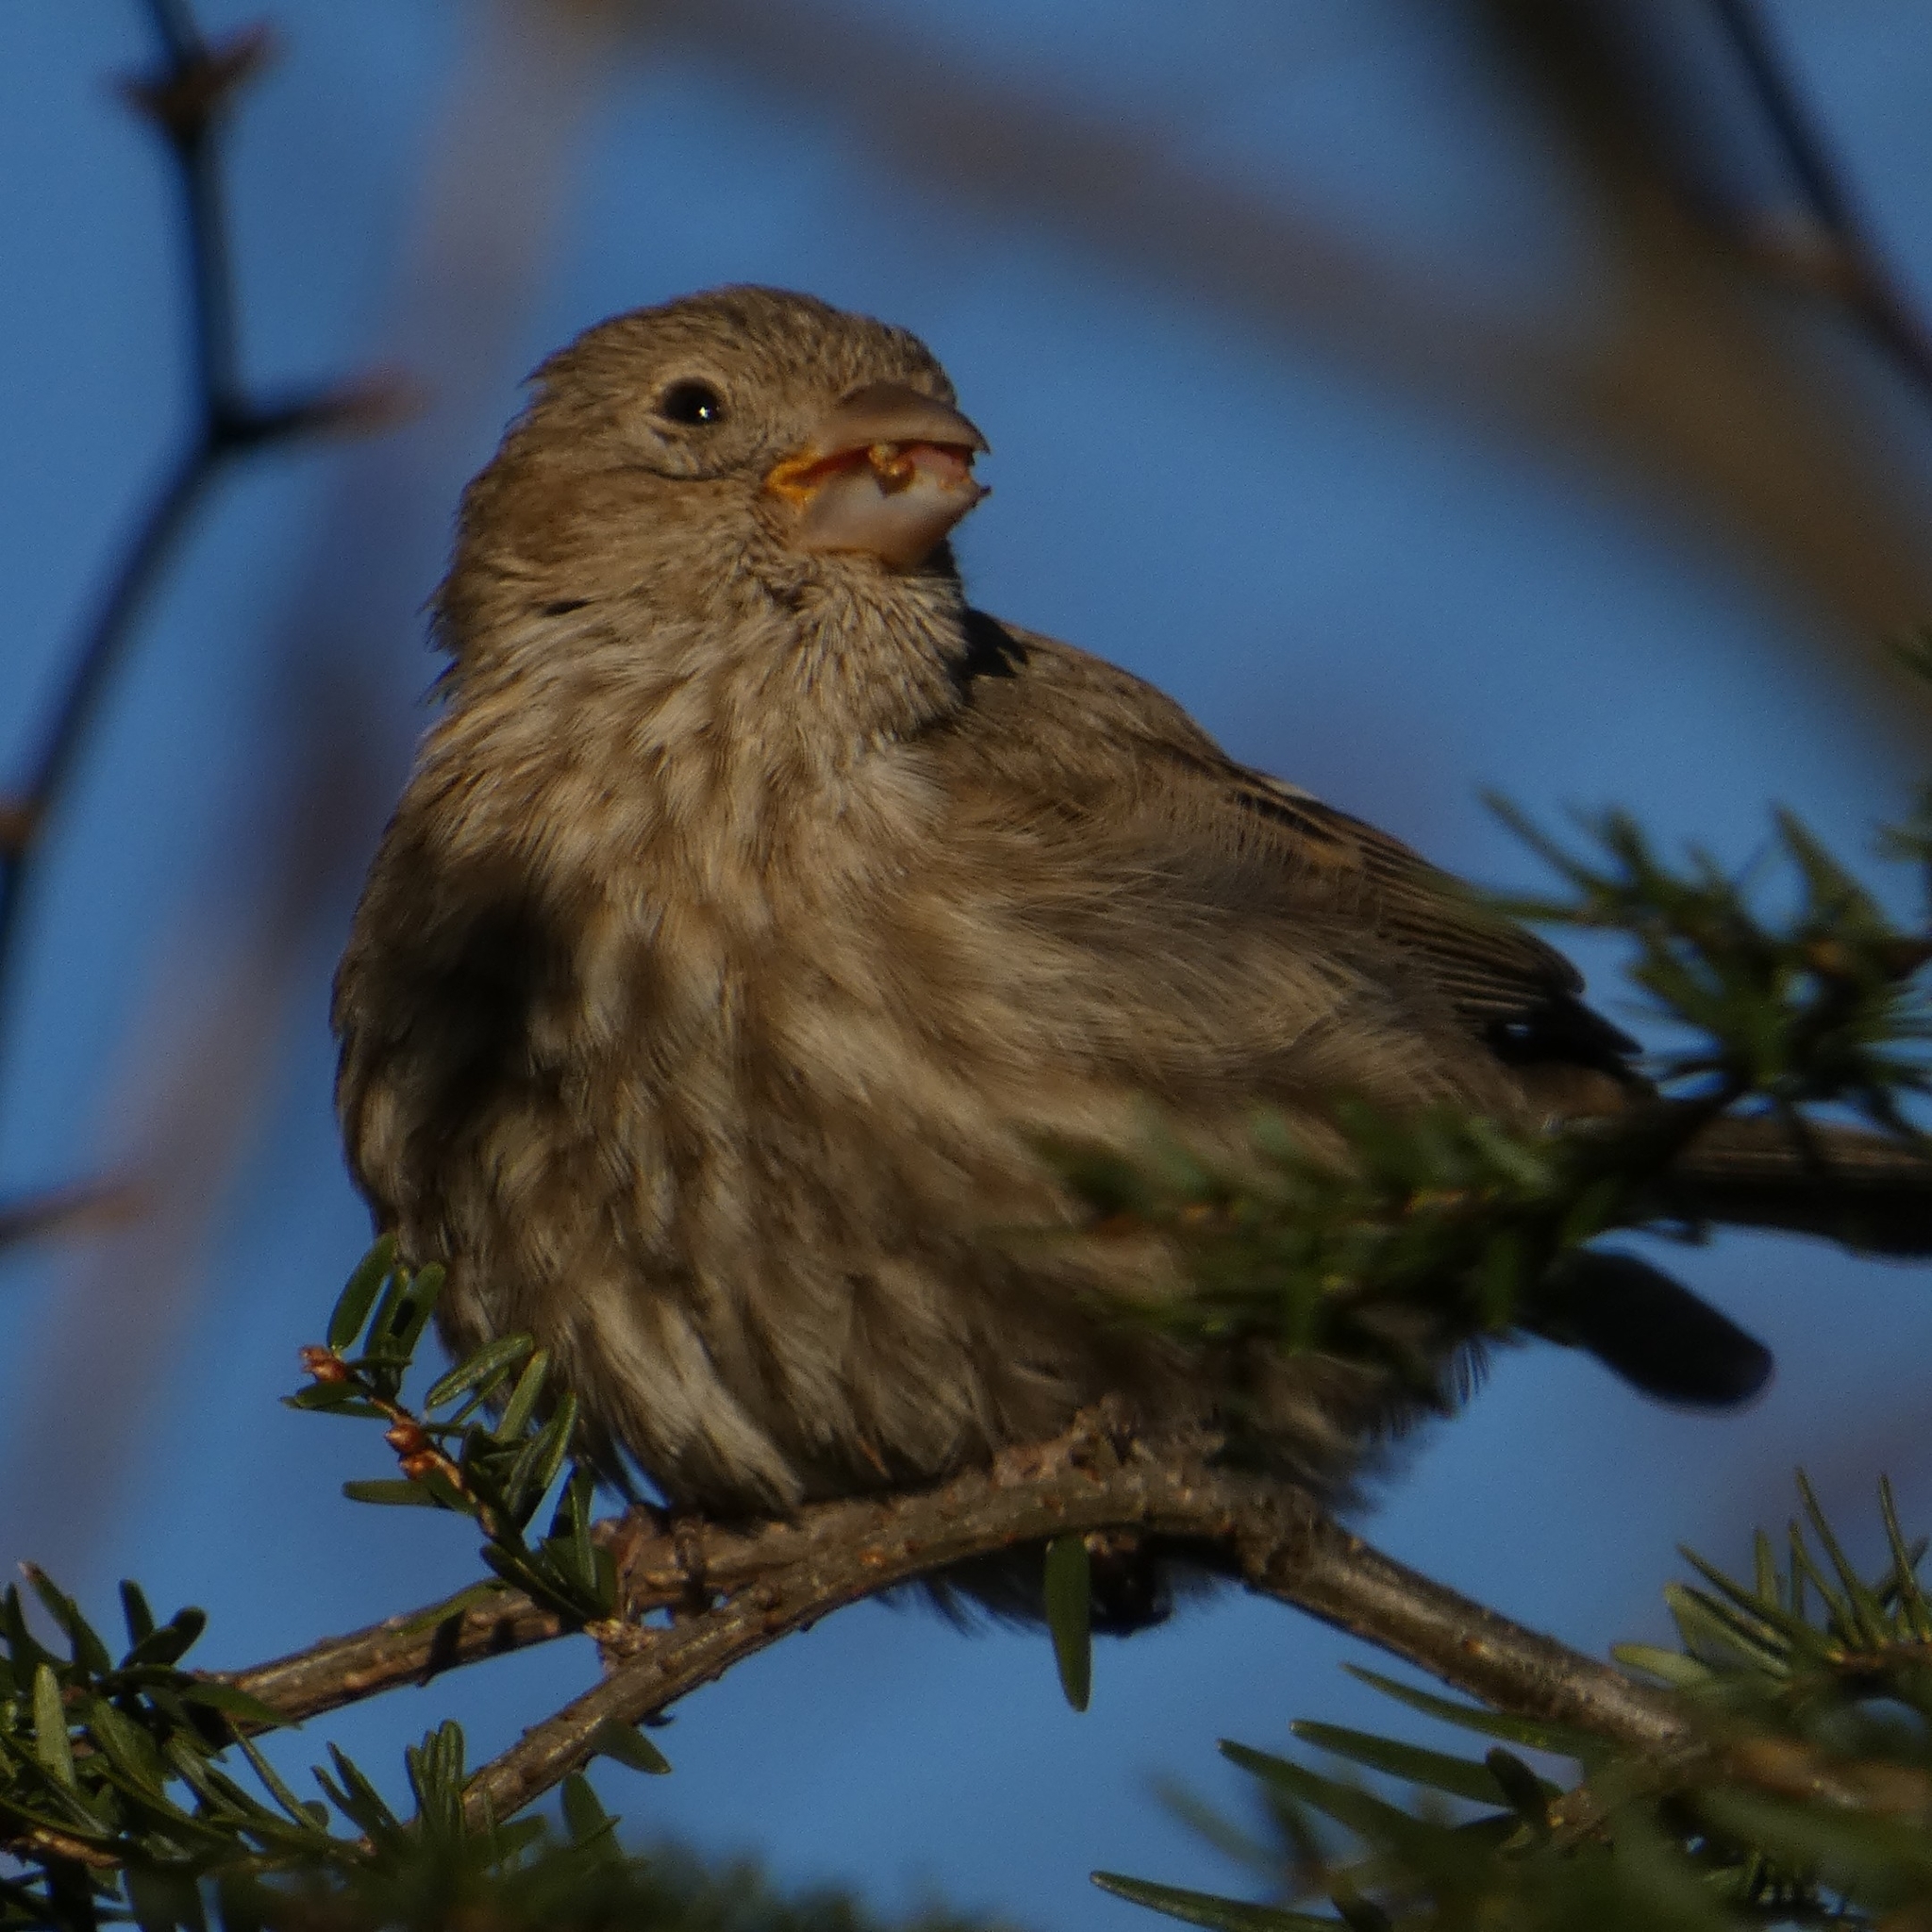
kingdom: Animalia
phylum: Chordata
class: Aves
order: Passeriformes
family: Fringillidae
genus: Haemorhous
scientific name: Haemorhous mexicanus
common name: House finch
